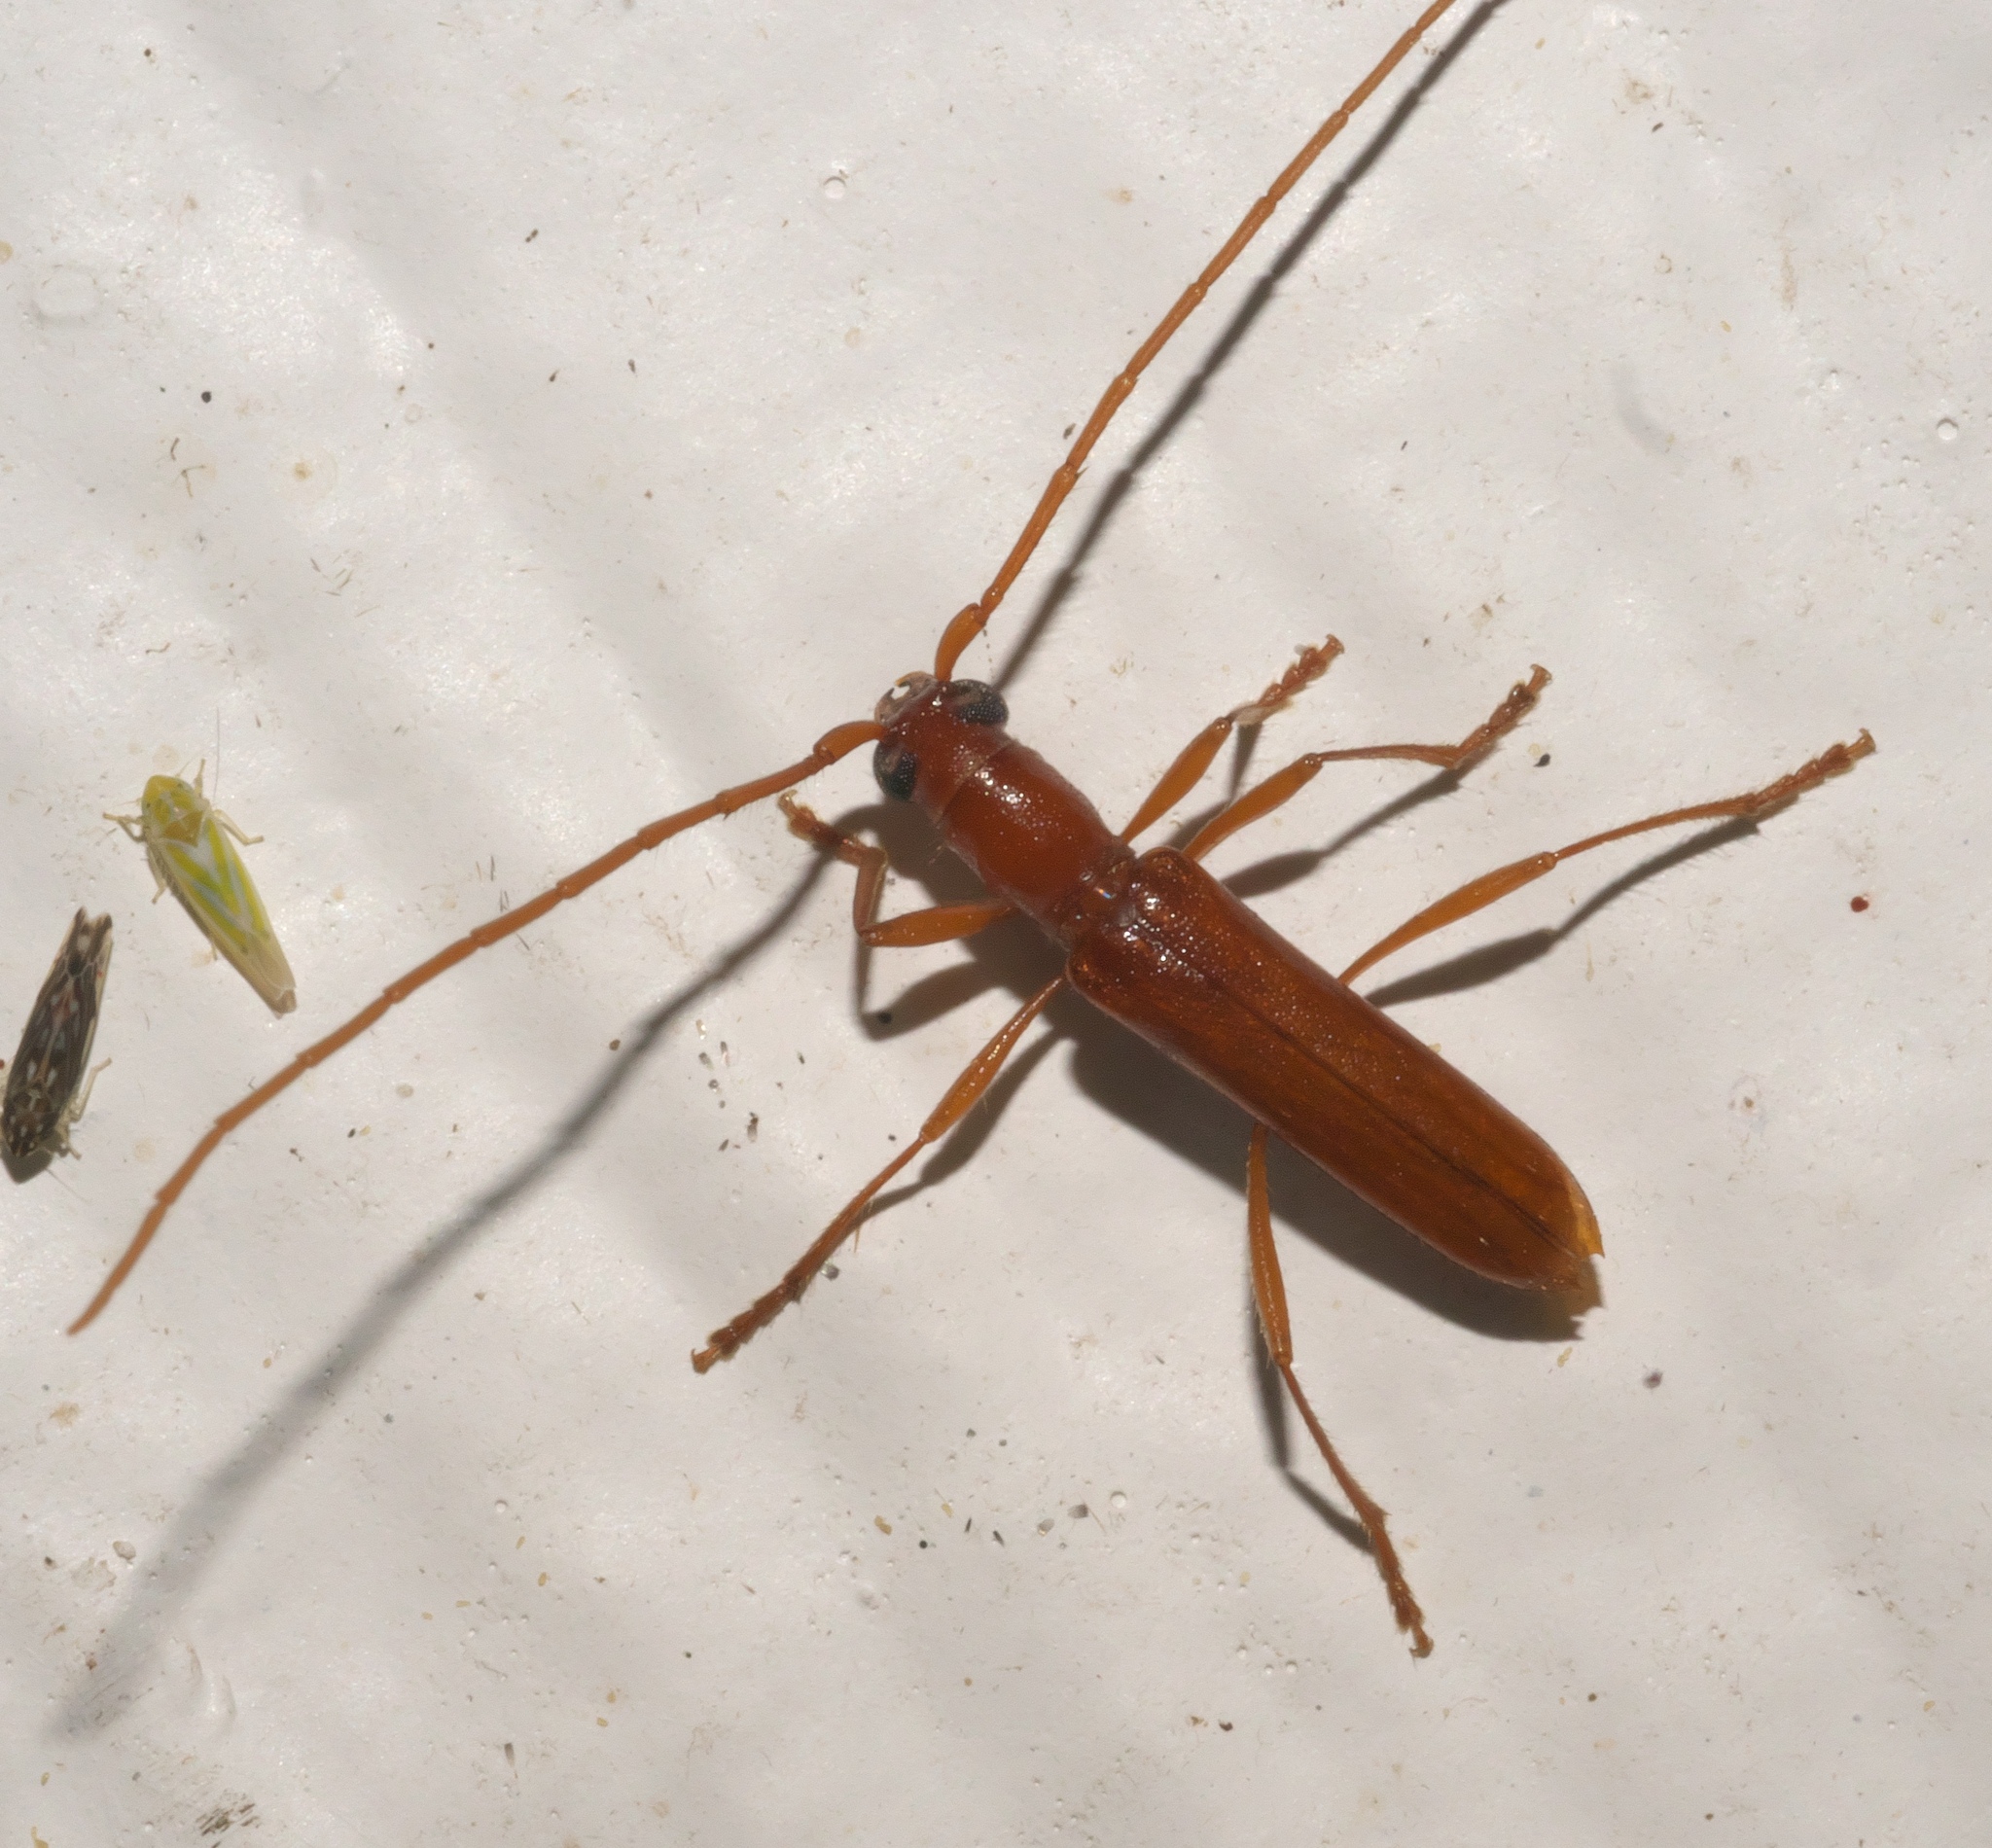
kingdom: Animalia
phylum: Arthropoda
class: Insecta
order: Coleoptera
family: Cerambycidae
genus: Psyrassa
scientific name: Psyrassa unicolor
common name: Branch pruner
